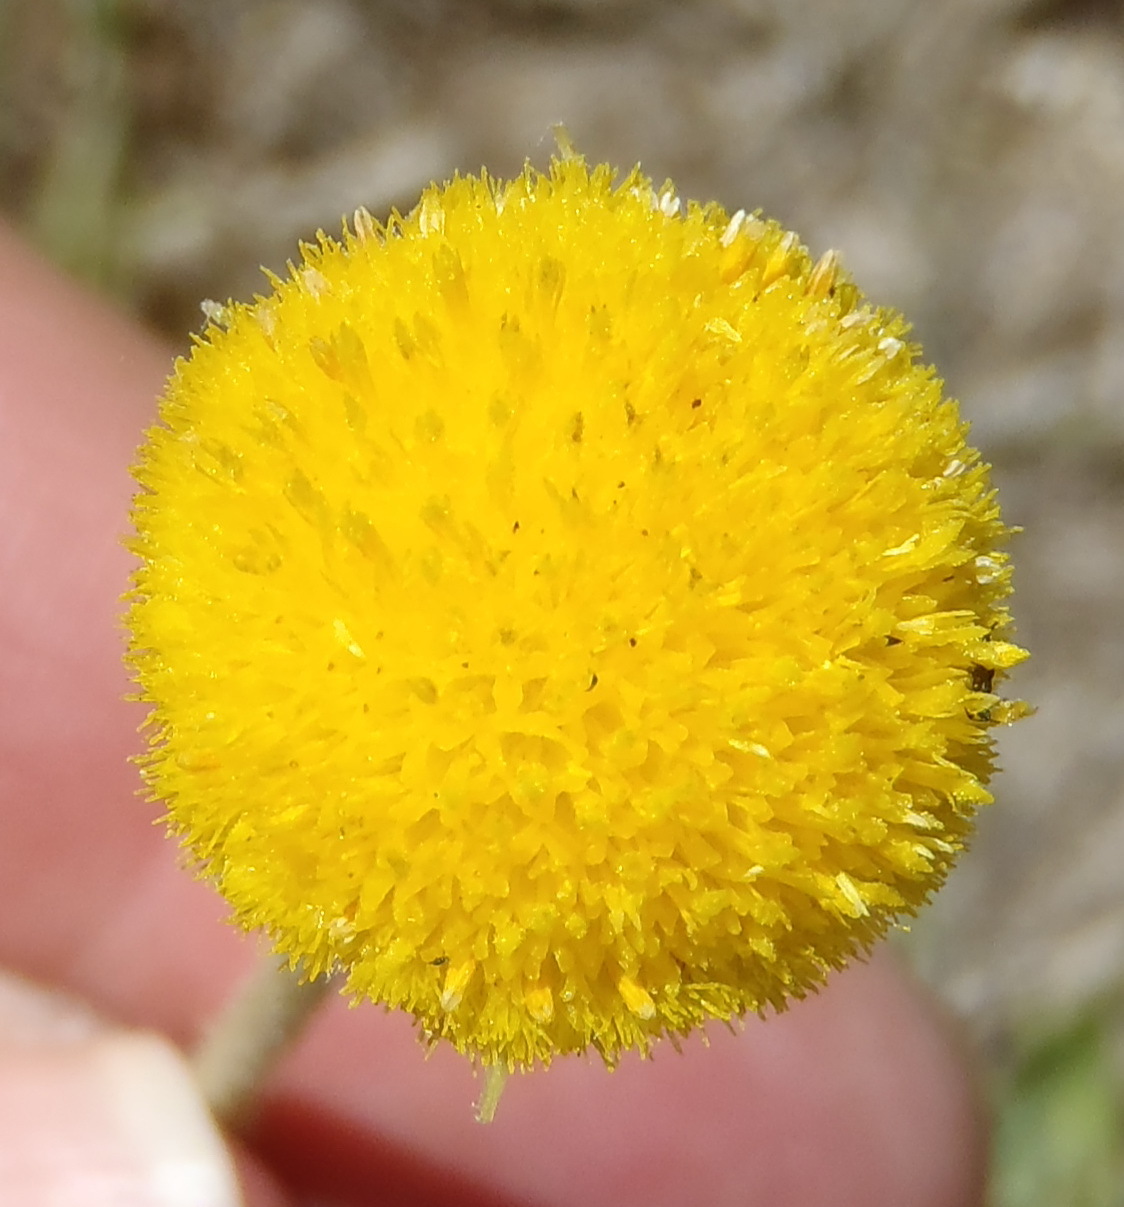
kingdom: Plantae
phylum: Tracheophyta
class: Magnoliopsida
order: Asterales
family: Asteraceae
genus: Nidorella
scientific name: Nidorella podocephala
